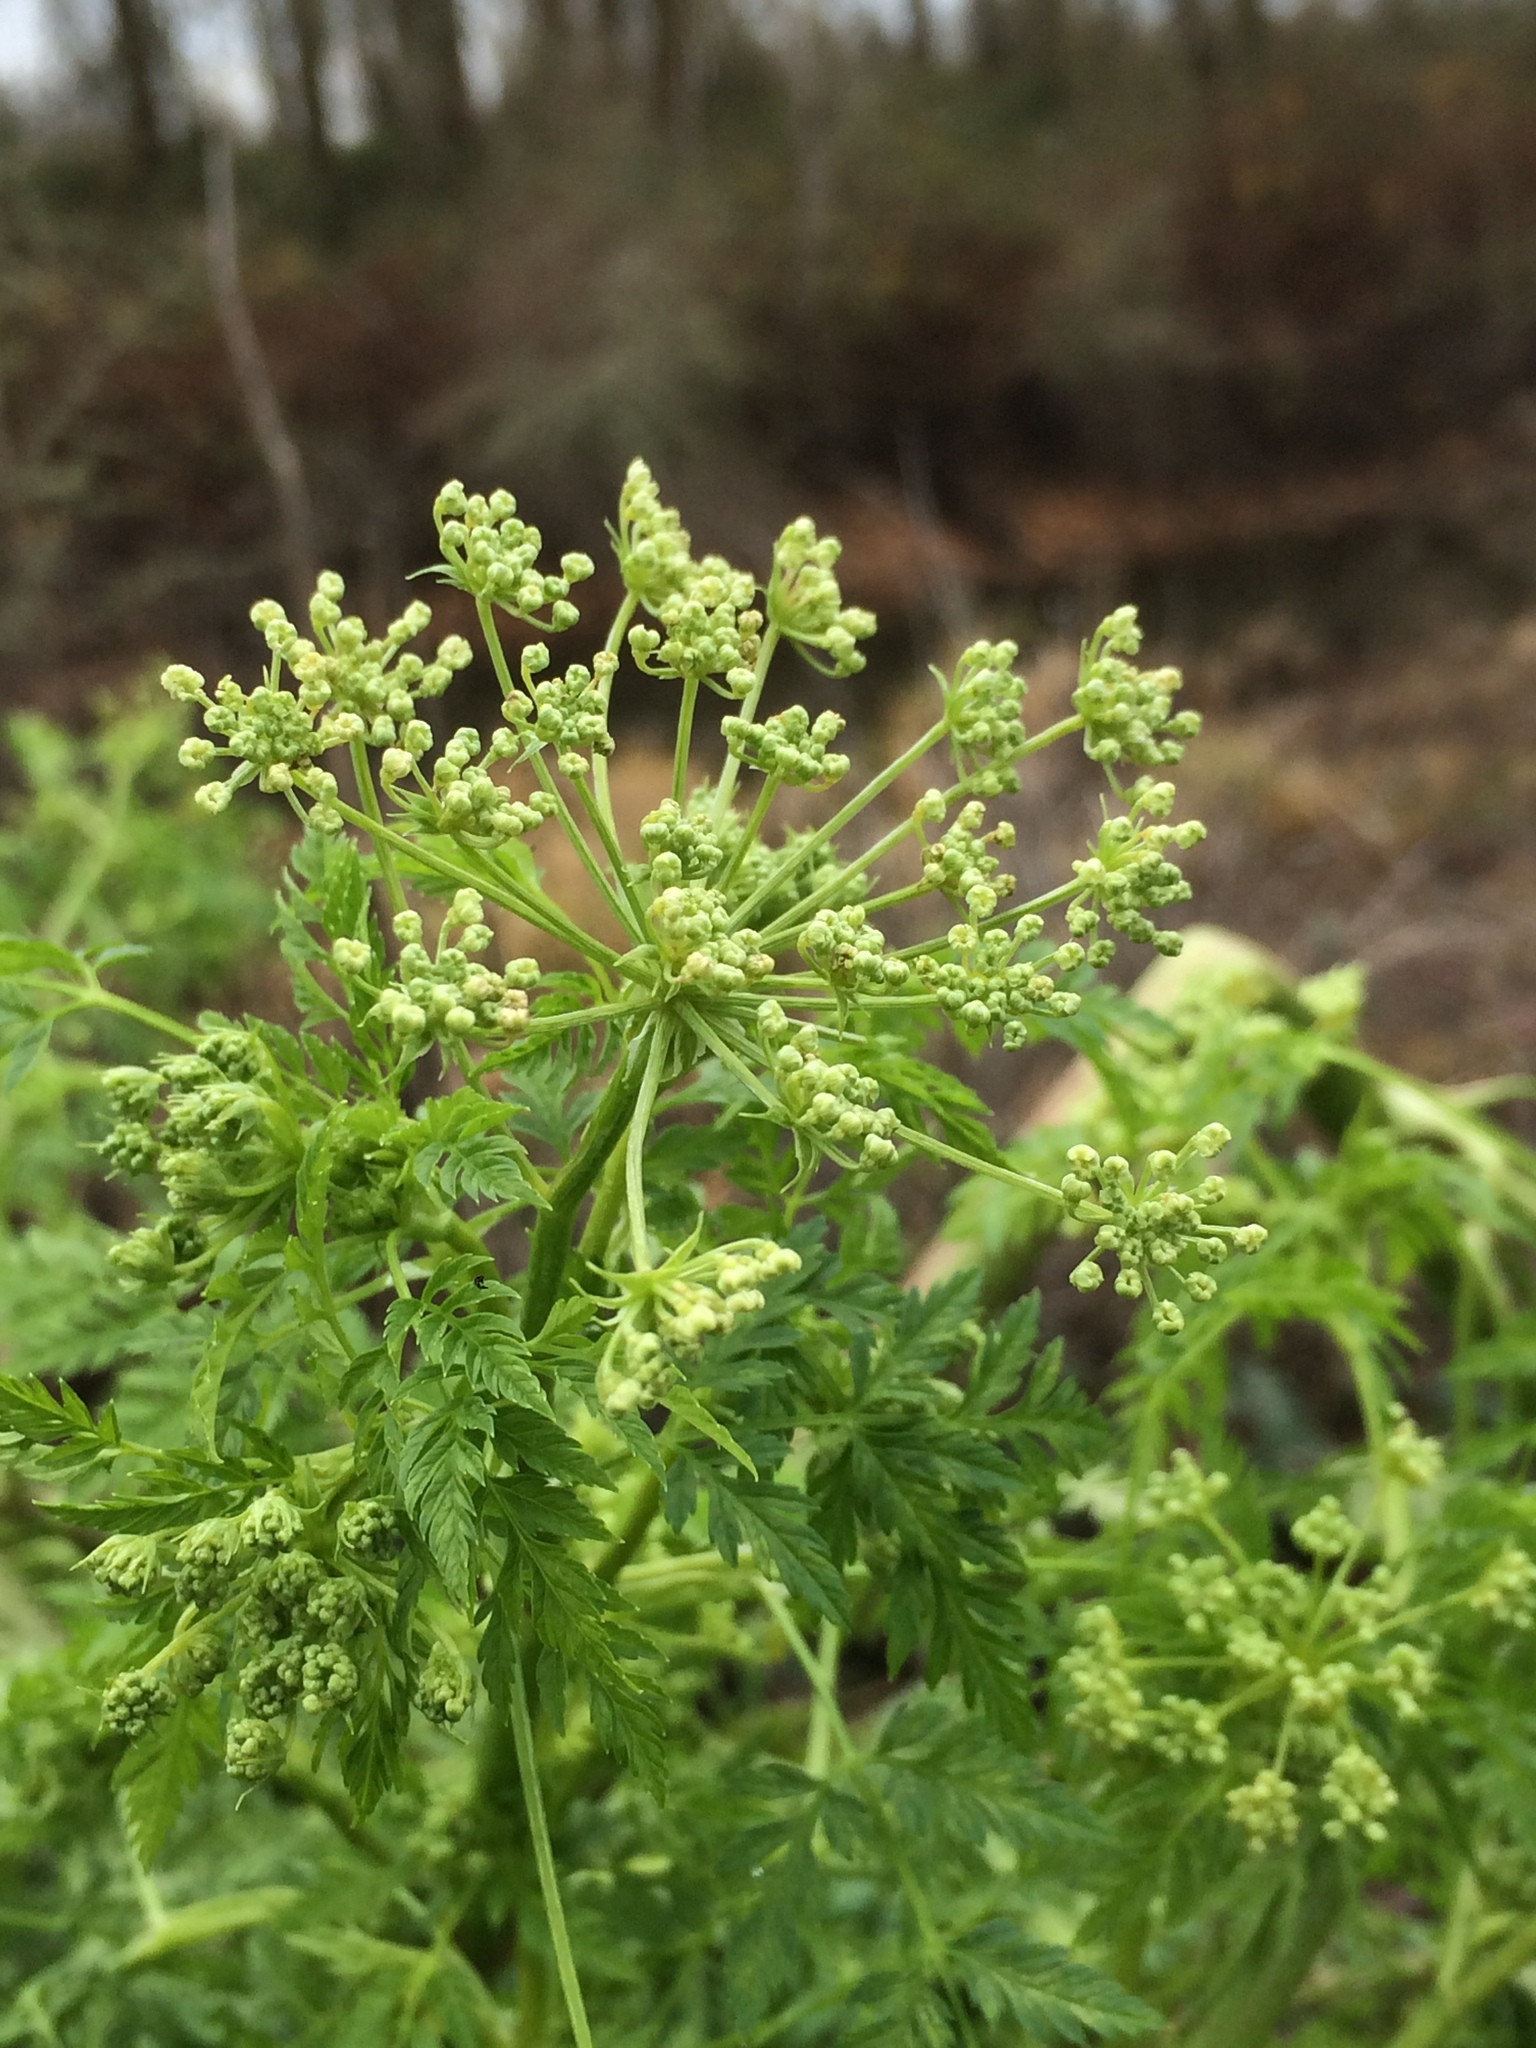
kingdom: Plantae
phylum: Tracheophyta
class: Magnoliopsida
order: Apiales
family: Apiaceae
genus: Conium
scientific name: Conium maculatum
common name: Hemlock
